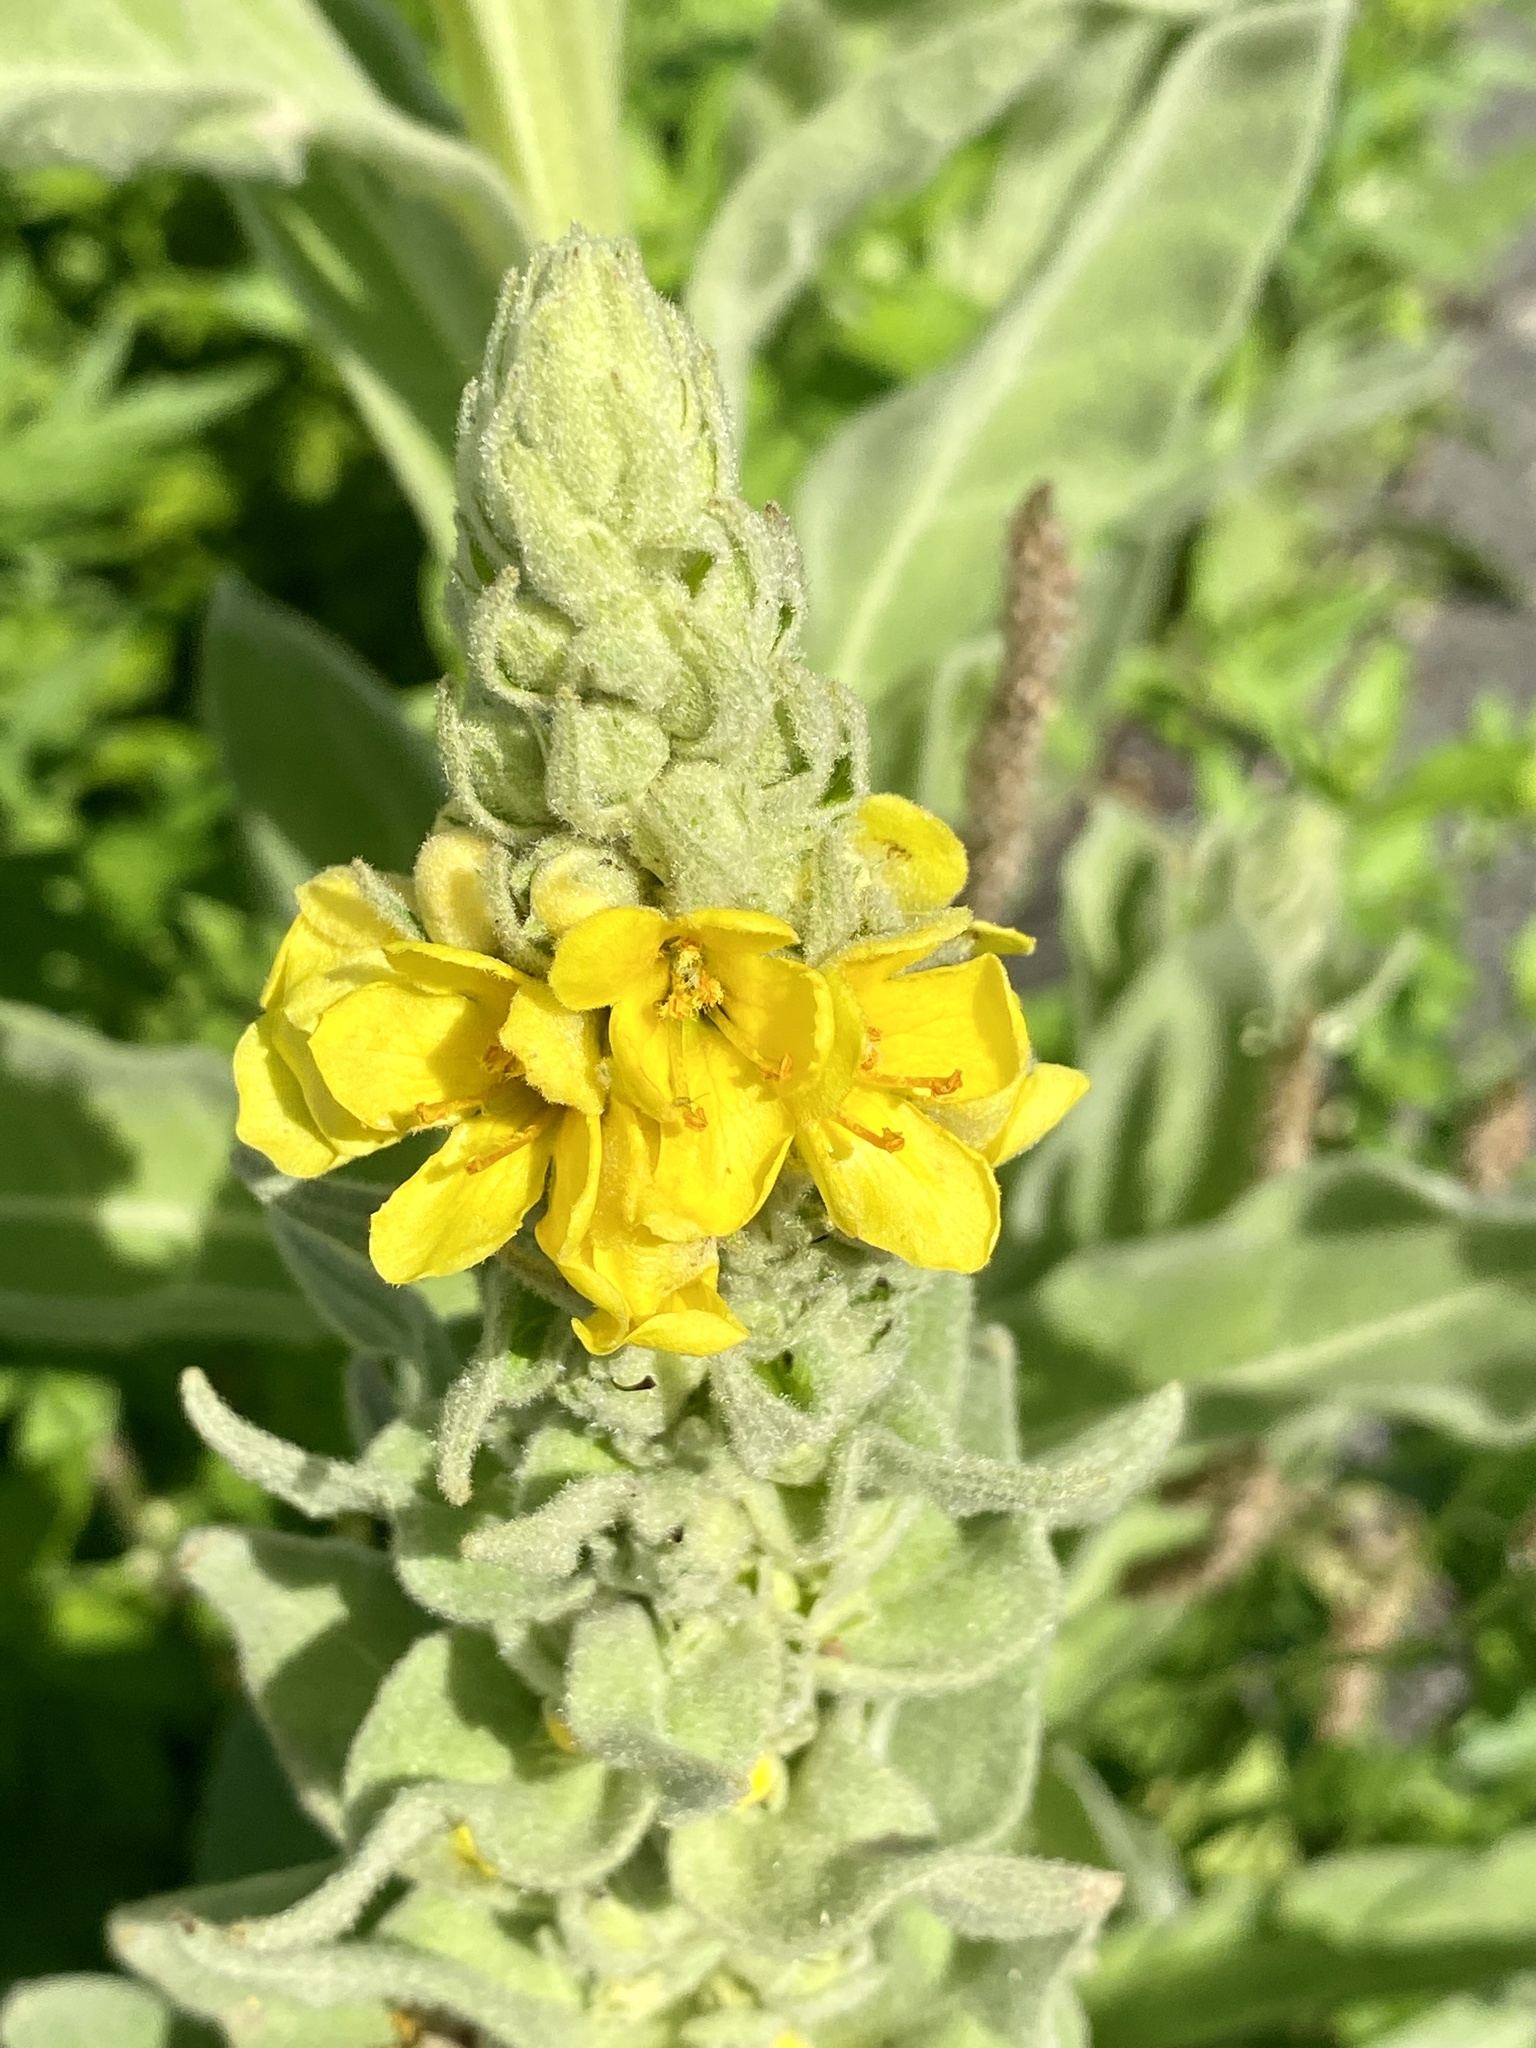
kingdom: Plantae
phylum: Tracheophyta
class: Magnoliopsida
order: Lamiales
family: Scrophulariaceae
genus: Verbascum
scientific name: Verbascum thapsus
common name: Common mullein
